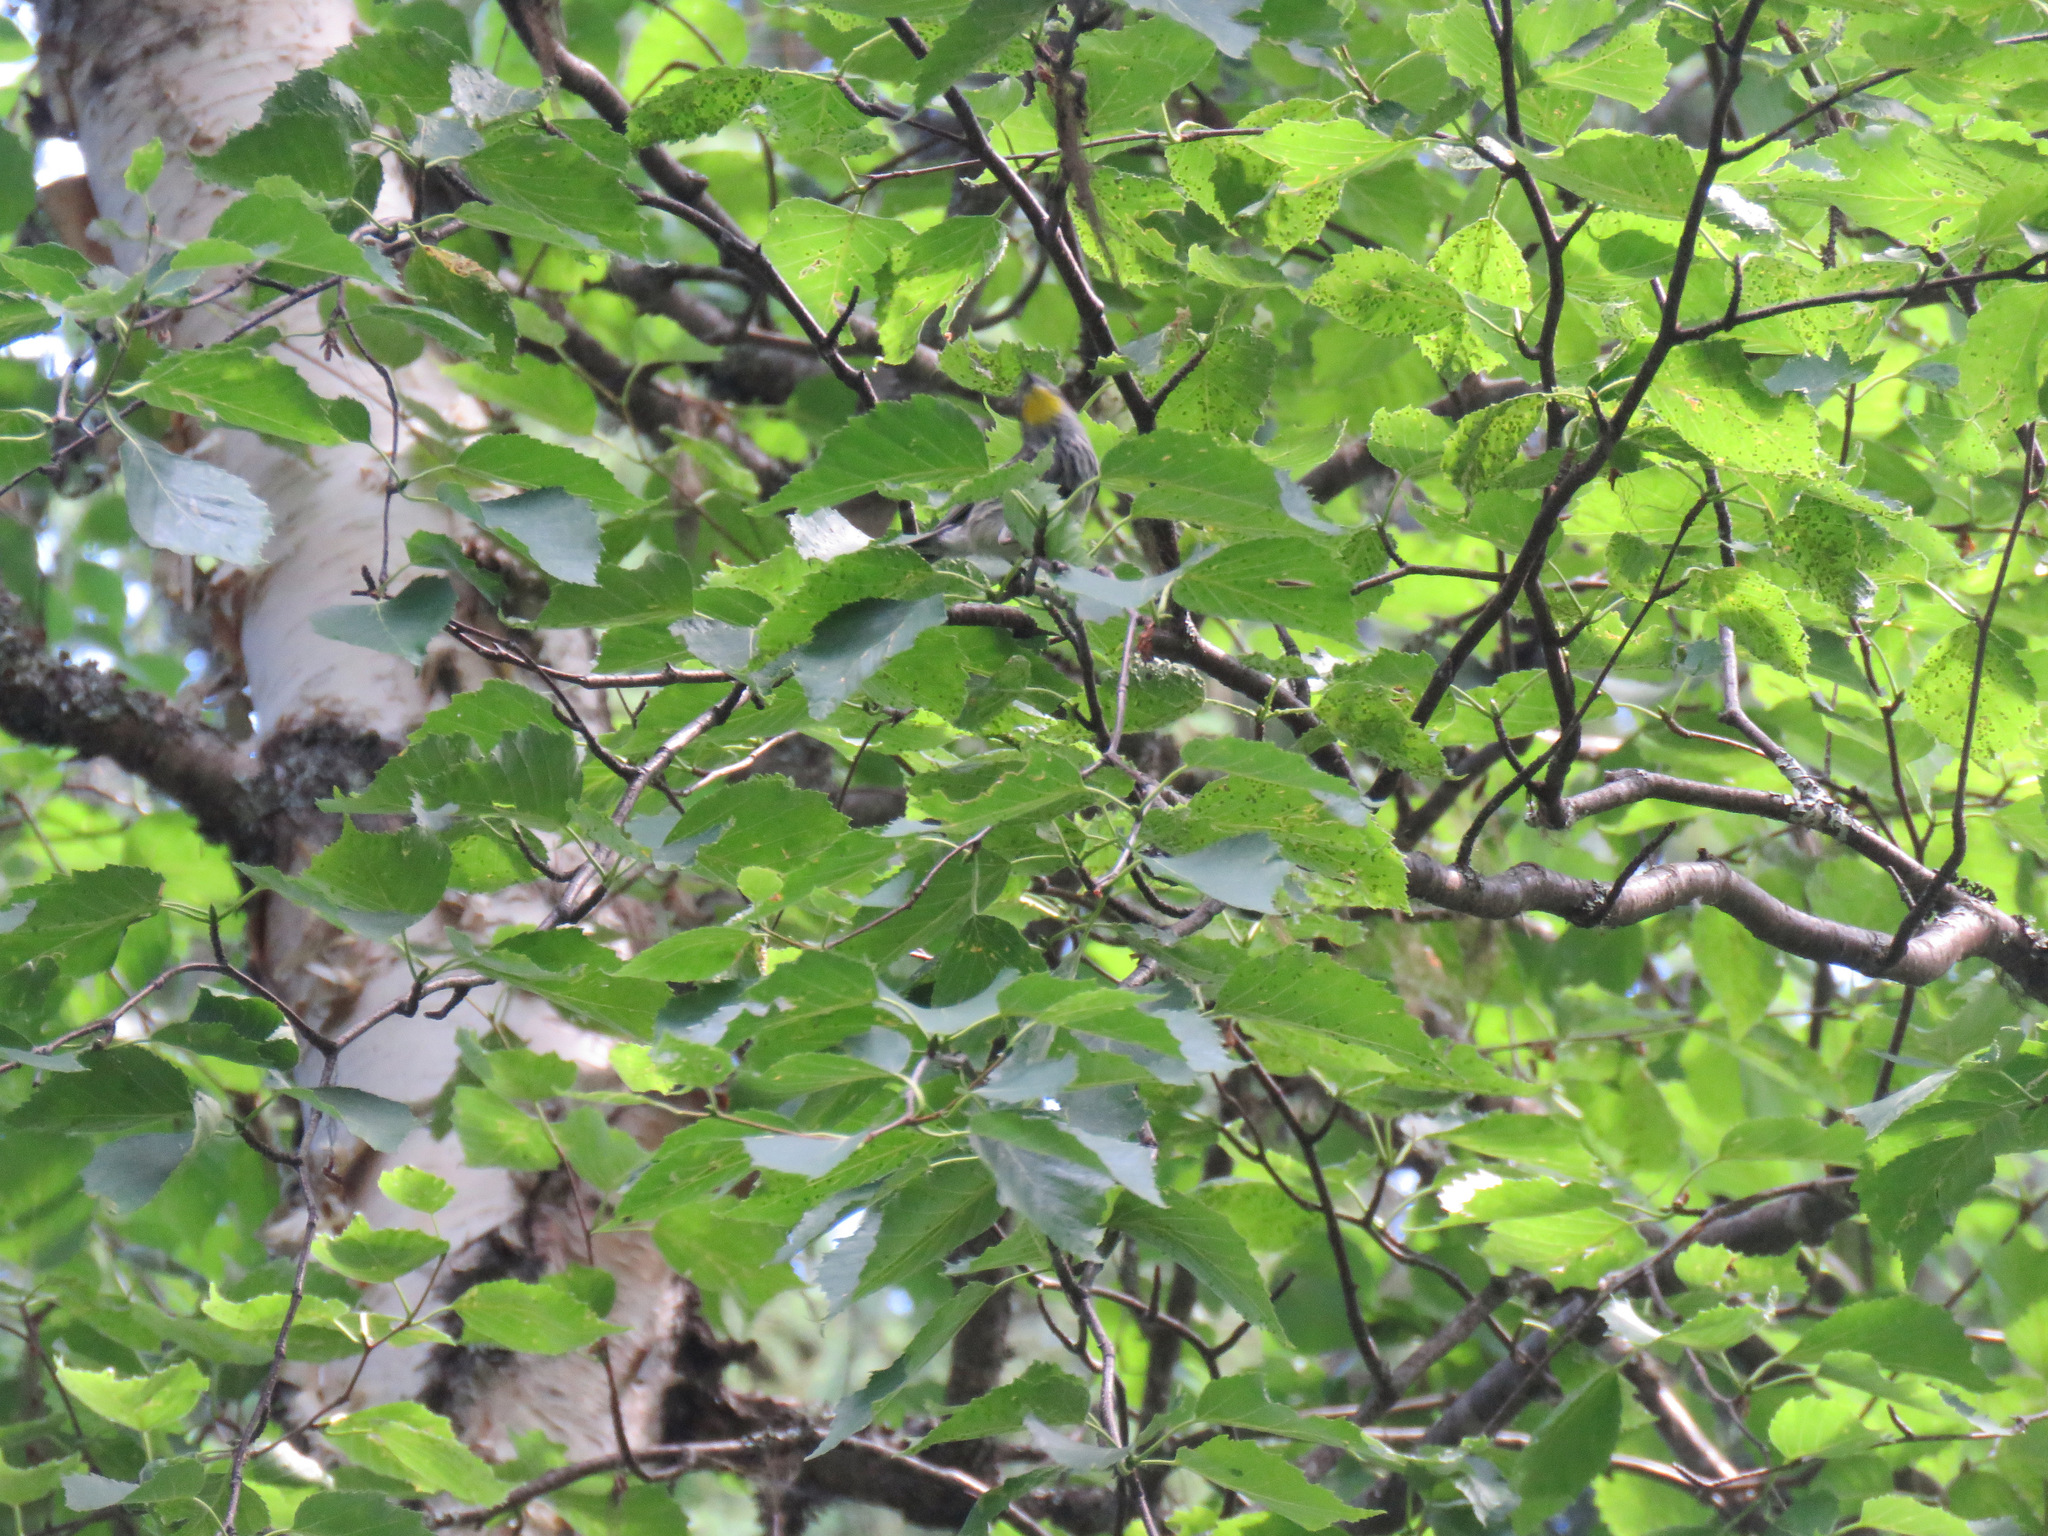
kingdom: Animalia
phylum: Chordata
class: Aves
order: Passeriformes
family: Parulidae
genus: Setophaga
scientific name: Setophaga coronata
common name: Myrtle warbler
